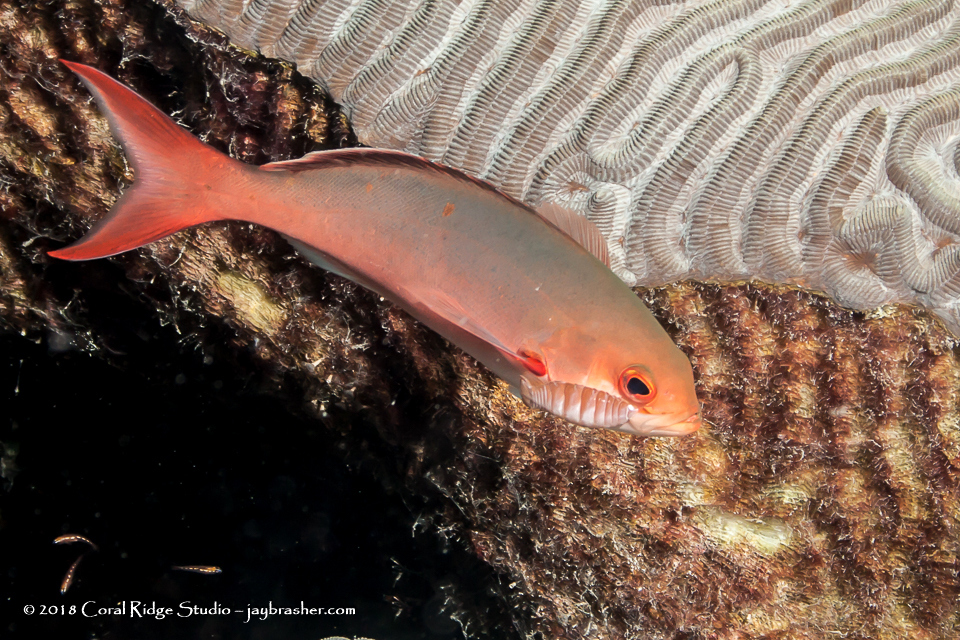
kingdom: Animalia
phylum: Chordata
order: Perciformes
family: Serranidae
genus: Paranthias
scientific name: Paranthias furcifer
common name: Creole-fish
